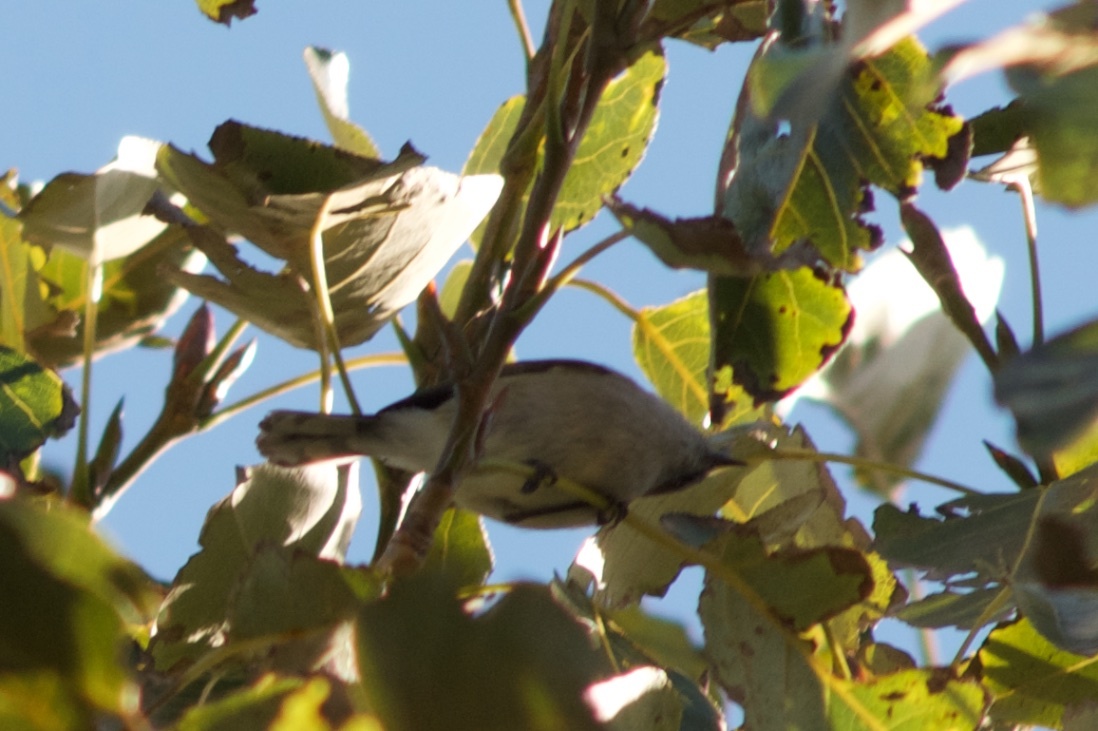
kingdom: Animalia
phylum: Chordata
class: Aves
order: Passeriformes
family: Acanthizidae
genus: Gerygone
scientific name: Gerygone igata
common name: Grey gerygone
